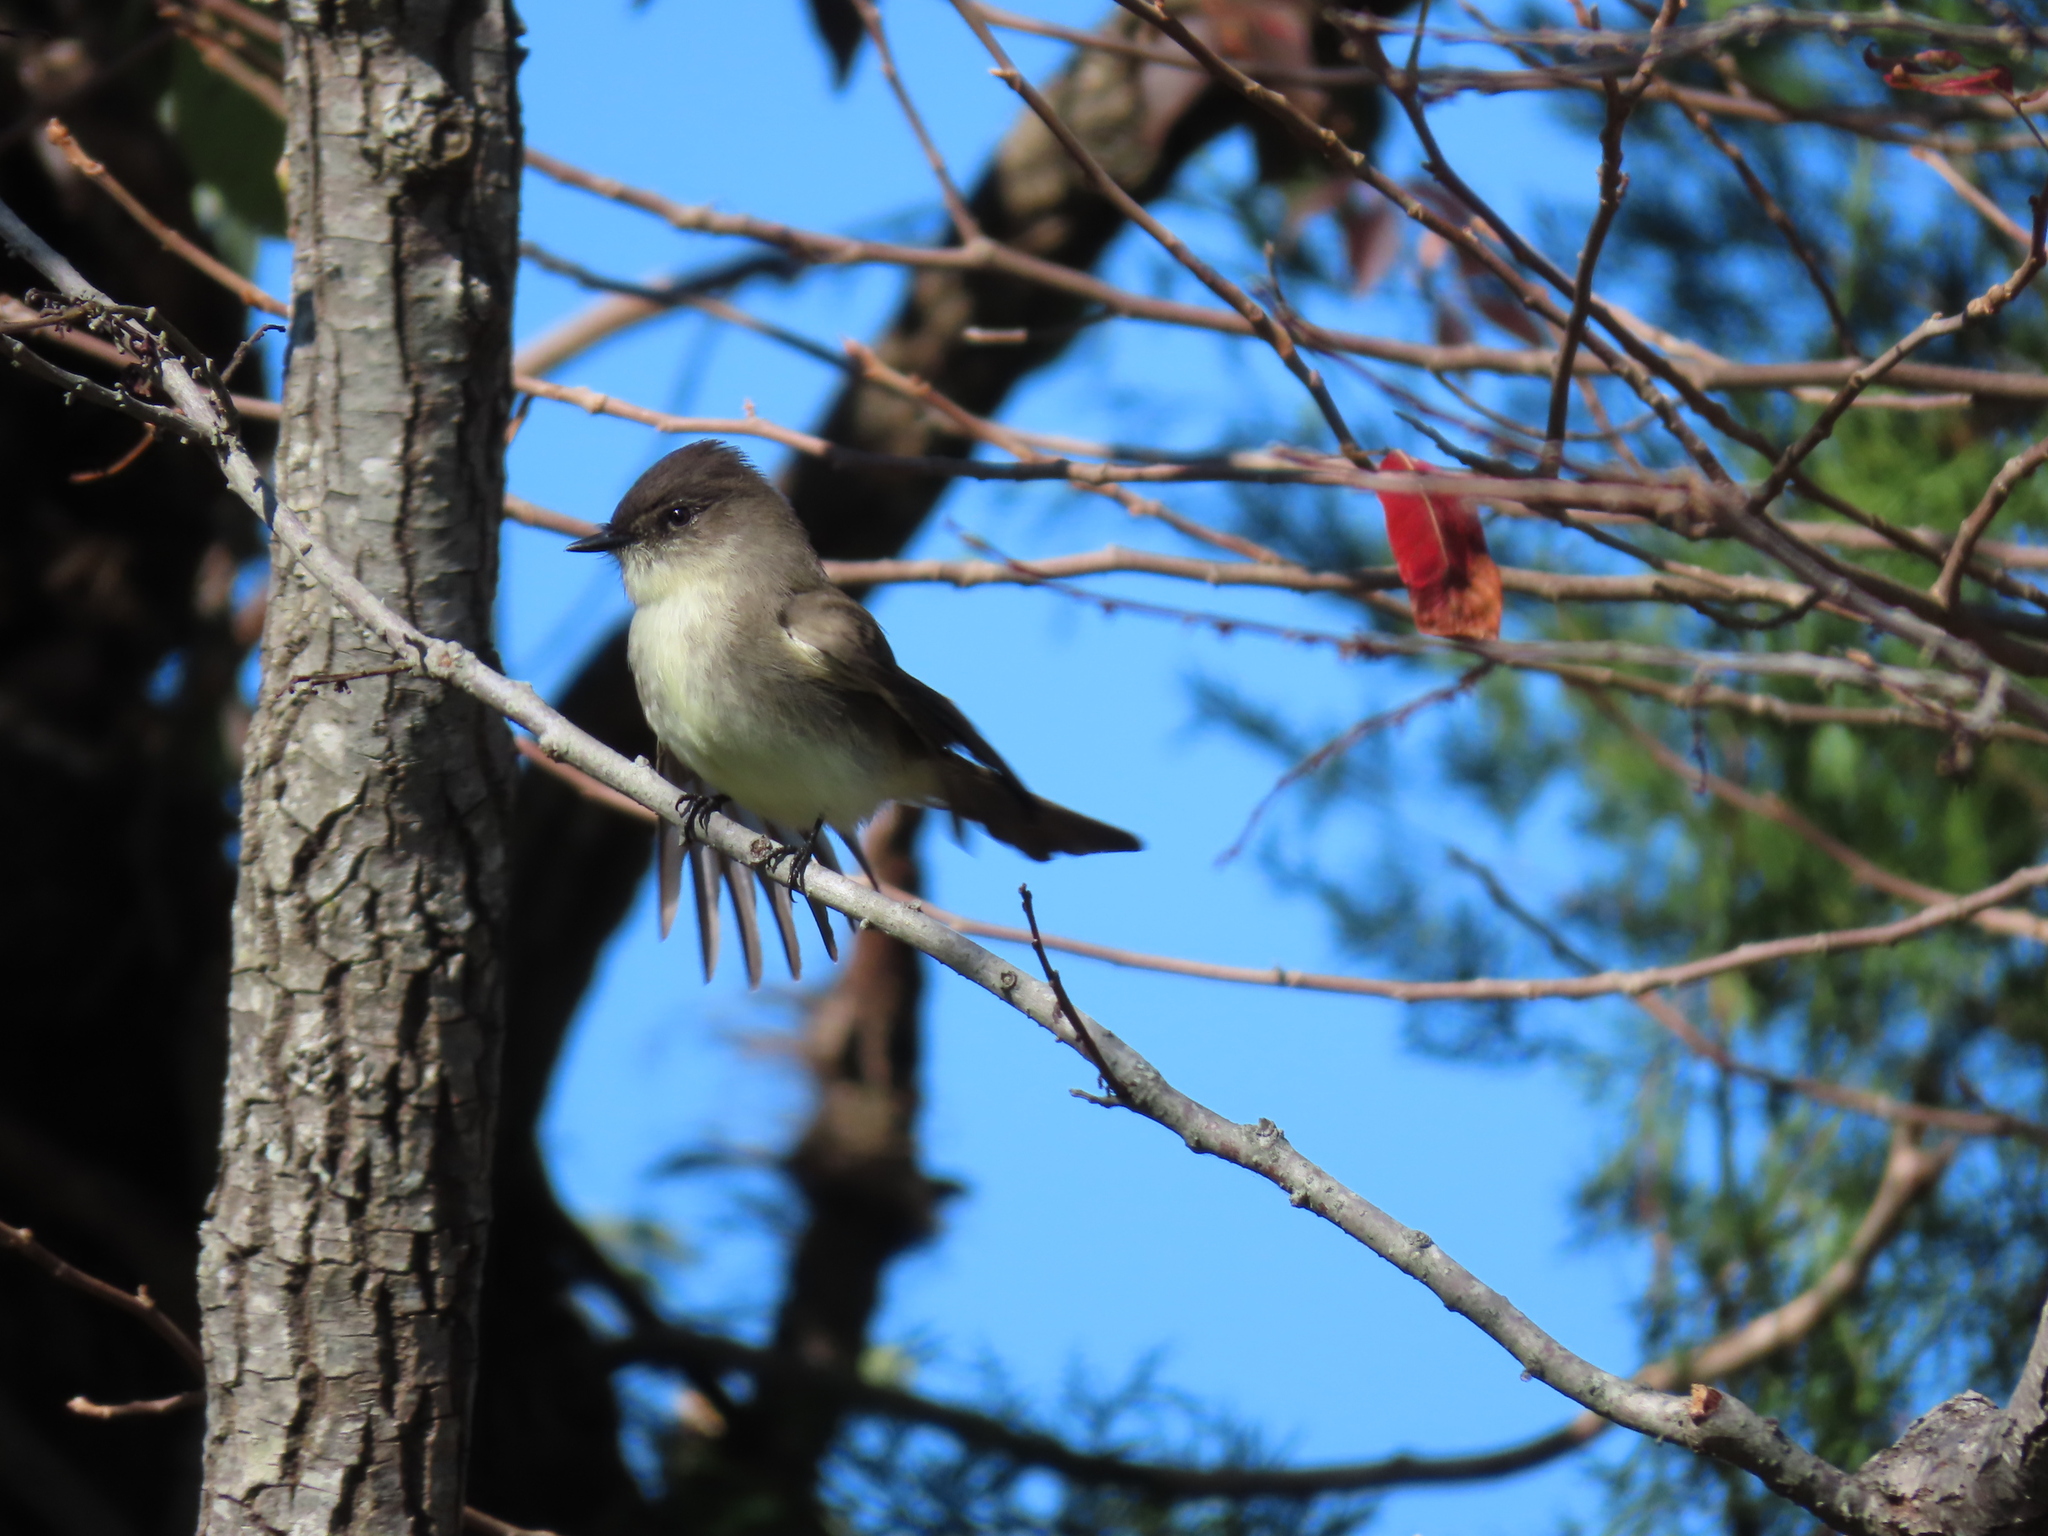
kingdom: Animalia
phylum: Chordata
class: Aves
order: Passeriformes
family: Tyrannidae
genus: Sayornis
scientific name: Sayornis phoebe
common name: Eastern phoebe
